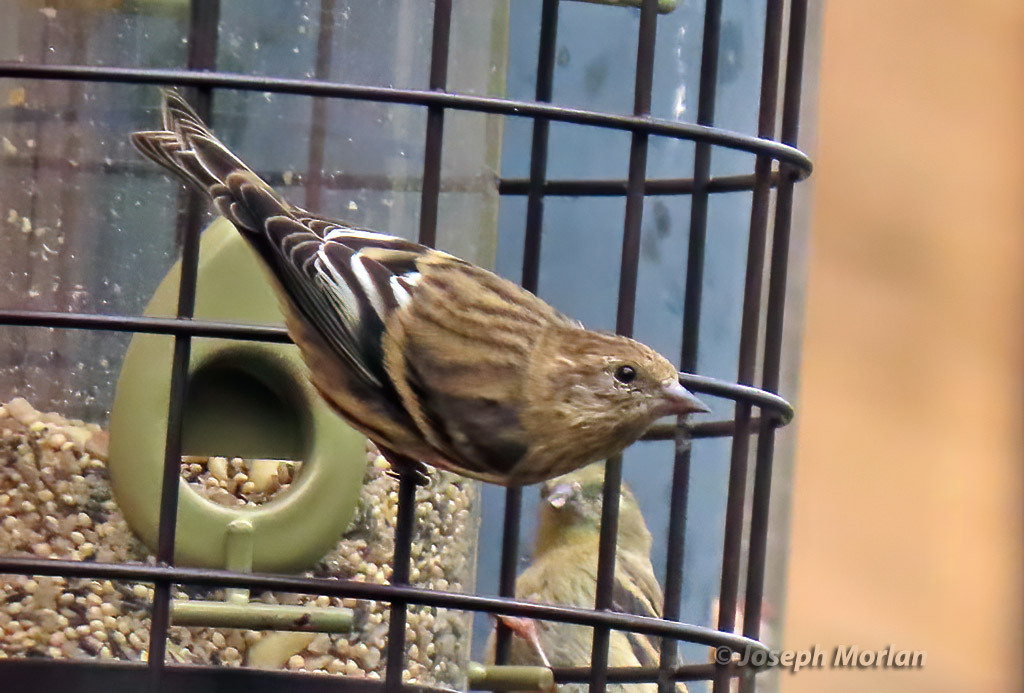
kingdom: Animalia
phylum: Chordata
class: Aves
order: Passeriformes
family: Fringillidae
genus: Spinus
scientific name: Spinus pinus
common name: Pine siskin
